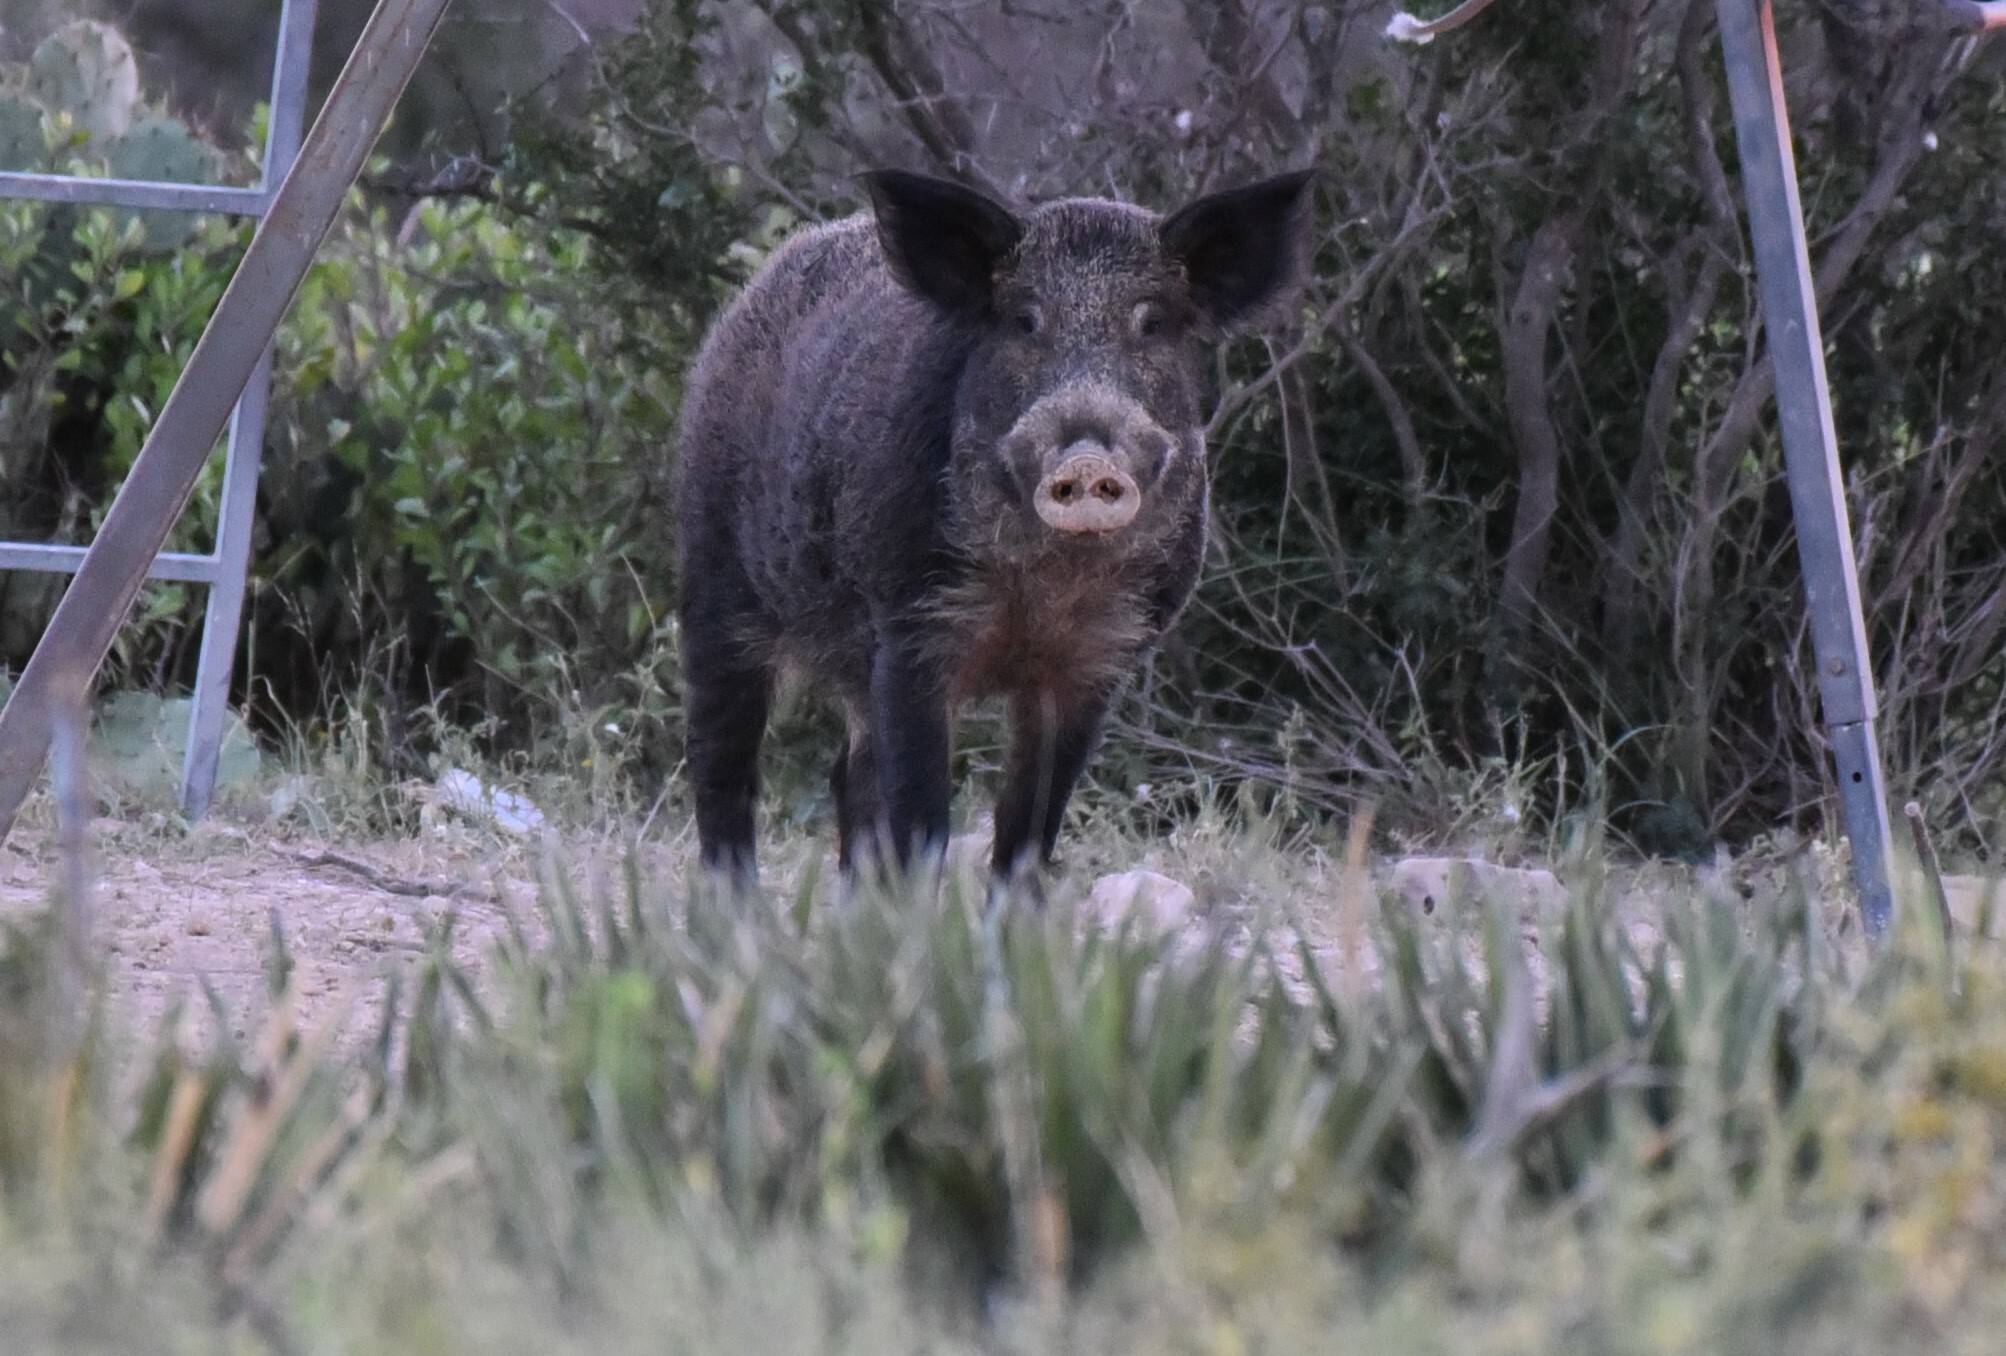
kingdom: Animalia
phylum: Chordata
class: Mammalia
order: Artiodactyla
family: Suidae
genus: Sus
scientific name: Sus scrofa
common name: Wild boar
